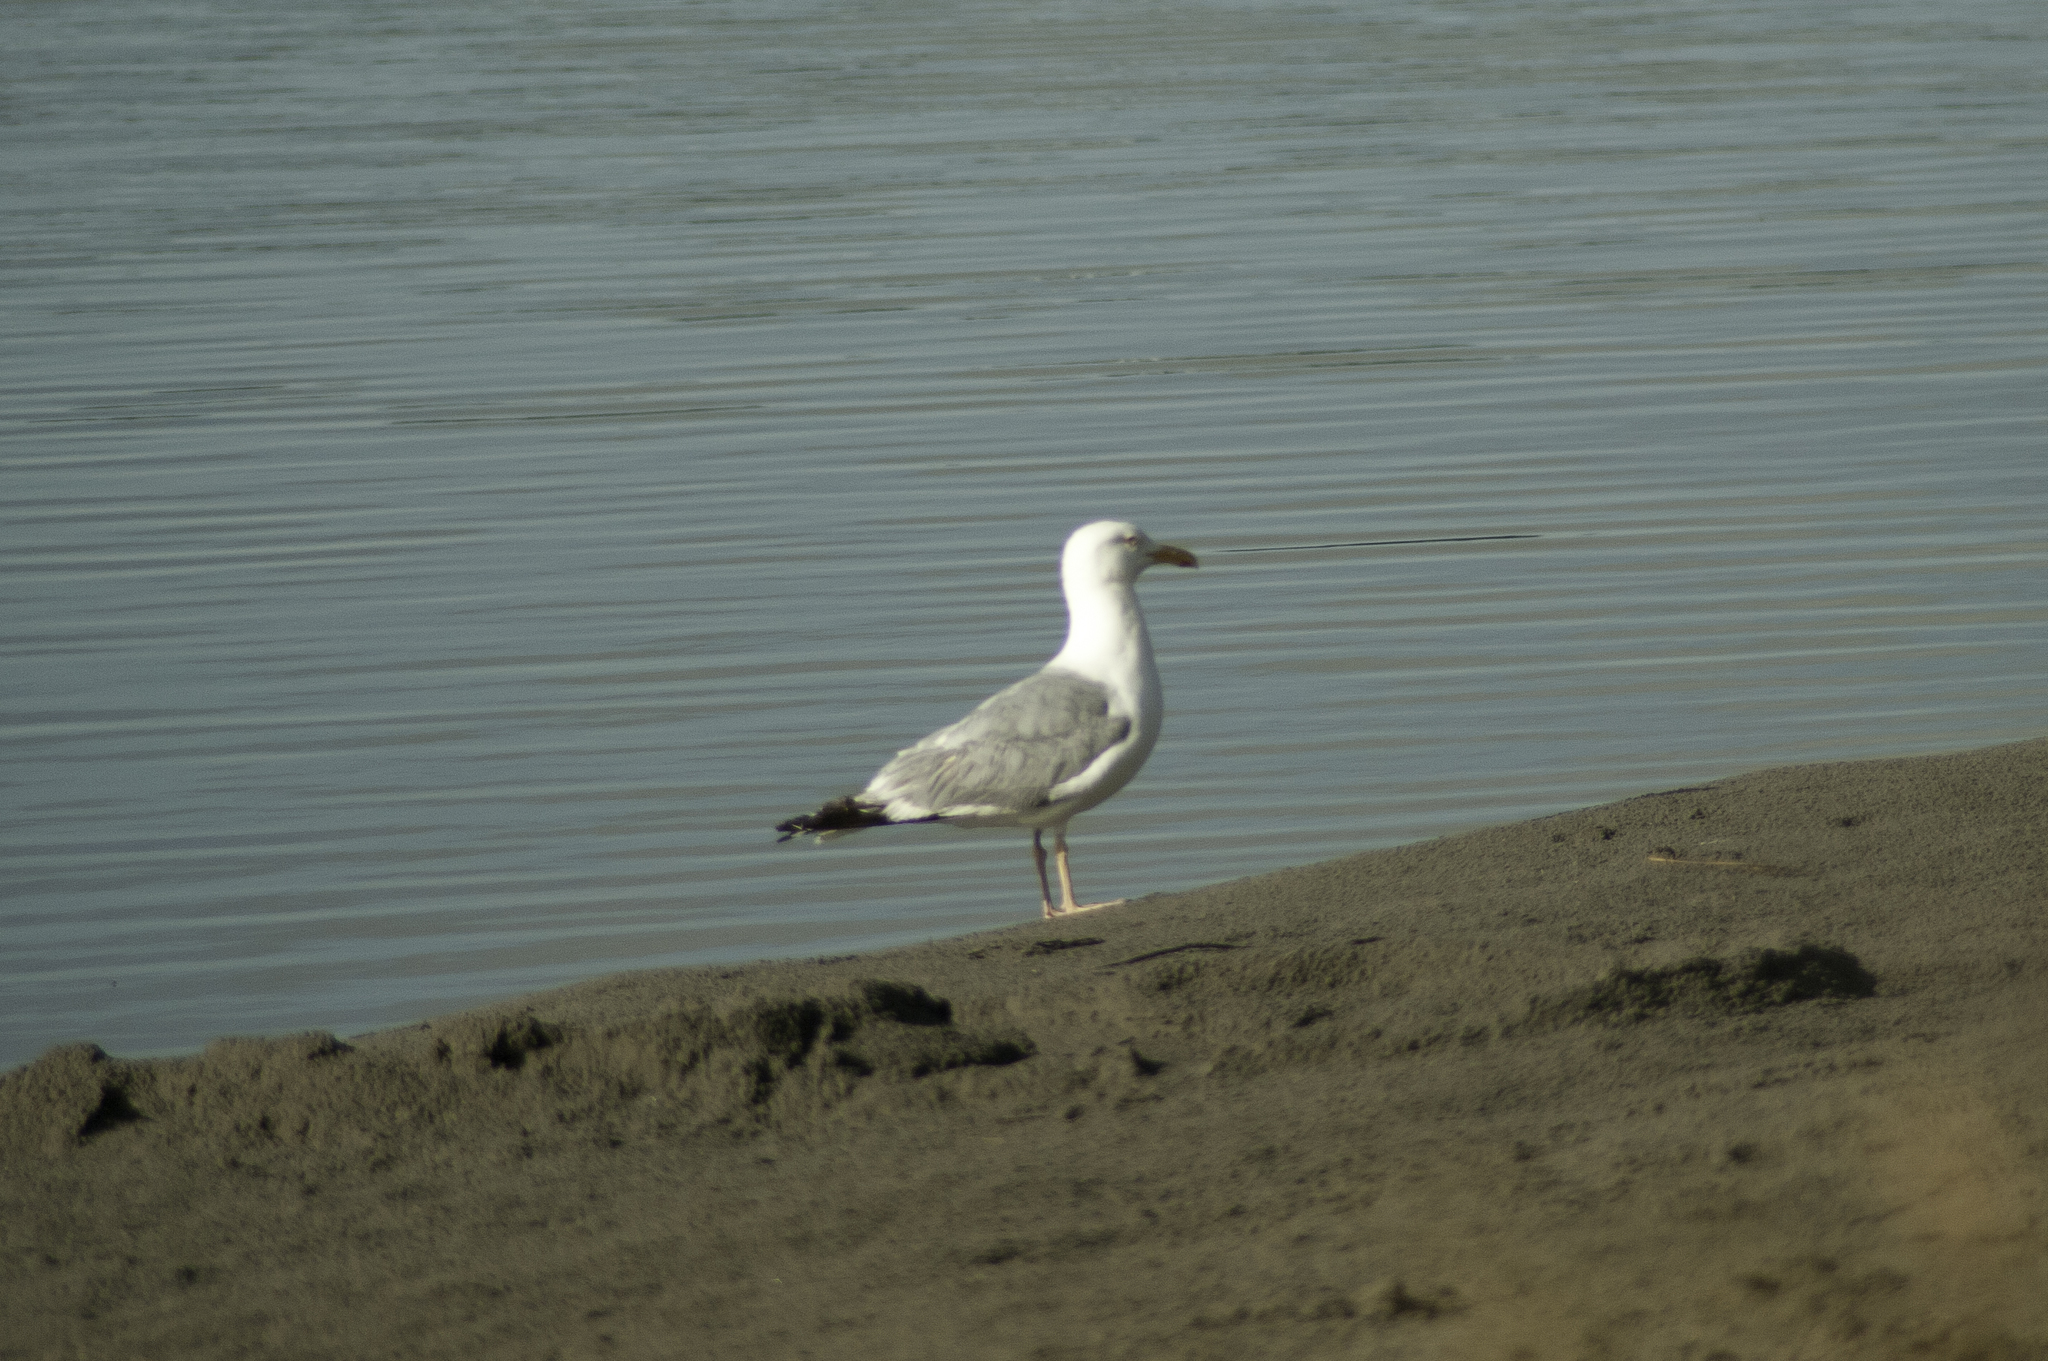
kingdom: Animalia
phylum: Chordata
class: Aves
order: Charadriiformes
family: Laridae
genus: Larus
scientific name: Larus argentatus
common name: Herring gull
